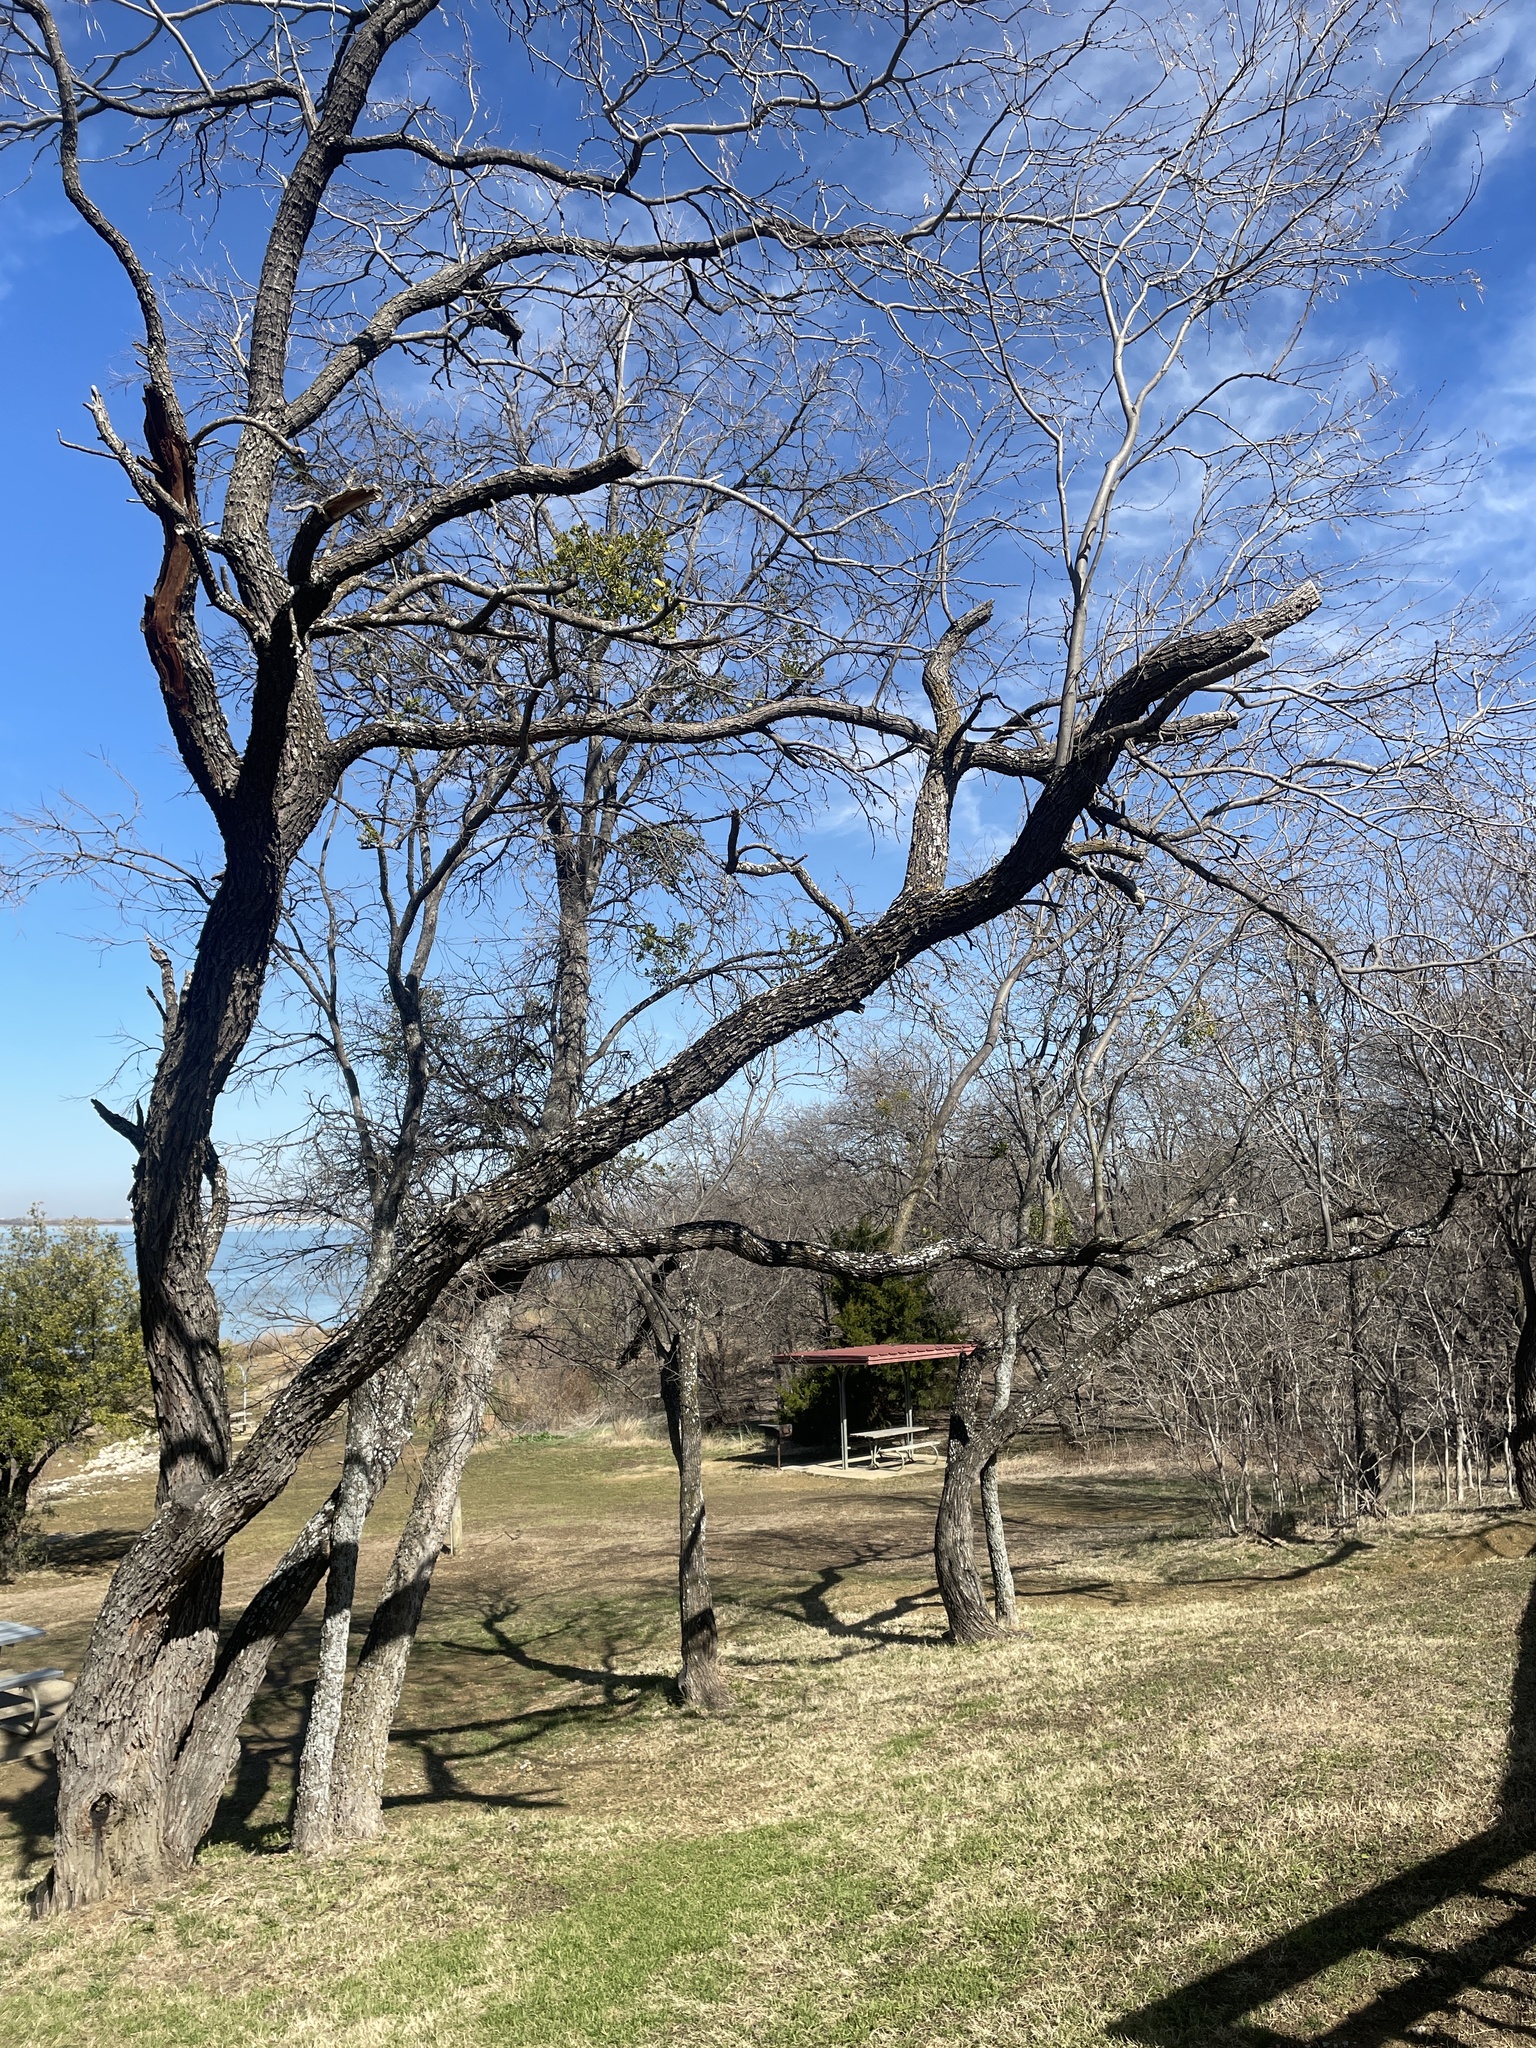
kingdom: Plantae
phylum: Tracheophyta
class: Magnoliopsida
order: Fabales
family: Fabaceae
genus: Prosopis
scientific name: Prosopis glandulosa
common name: Honey mesquite
